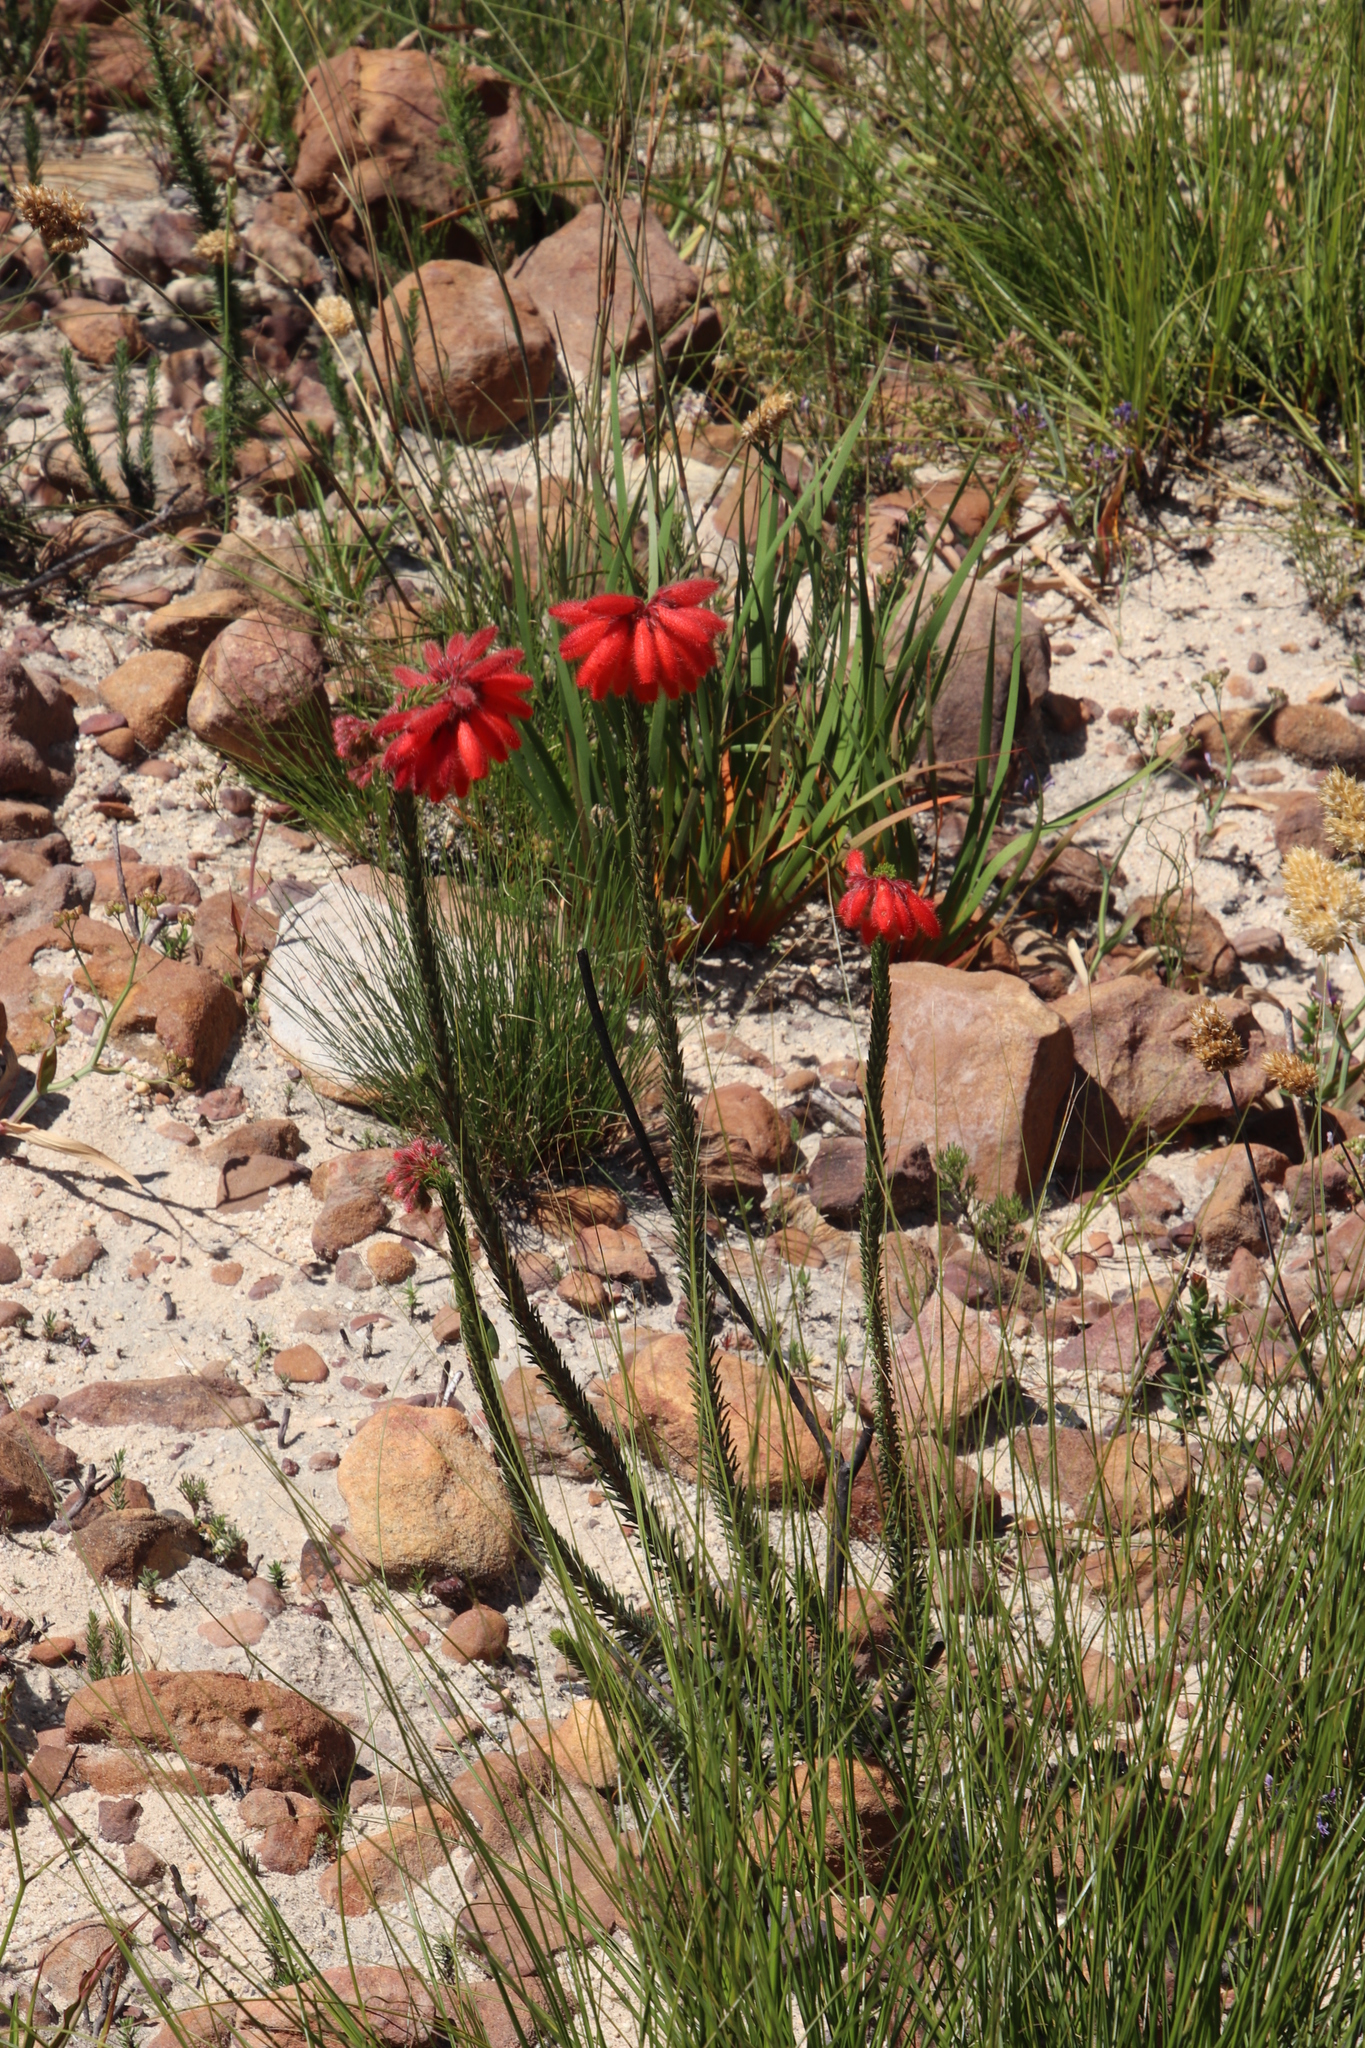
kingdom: Plantae
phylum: Tracheophyta
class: Magnoliopsida
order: Ericales
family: Ericaceae
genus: Erica
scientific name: Erica cerinthoides
